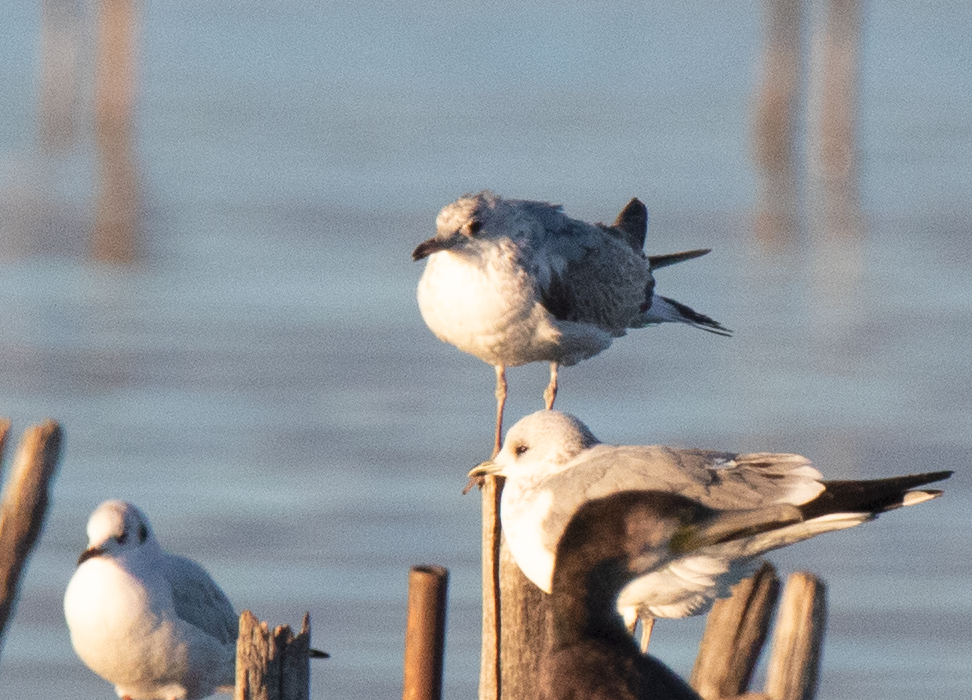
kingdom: Animalia
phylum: Chordata
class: Aves
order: Charadriiformes
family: Laridae
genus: Larus
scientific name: Larus canus
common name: Mew gull
